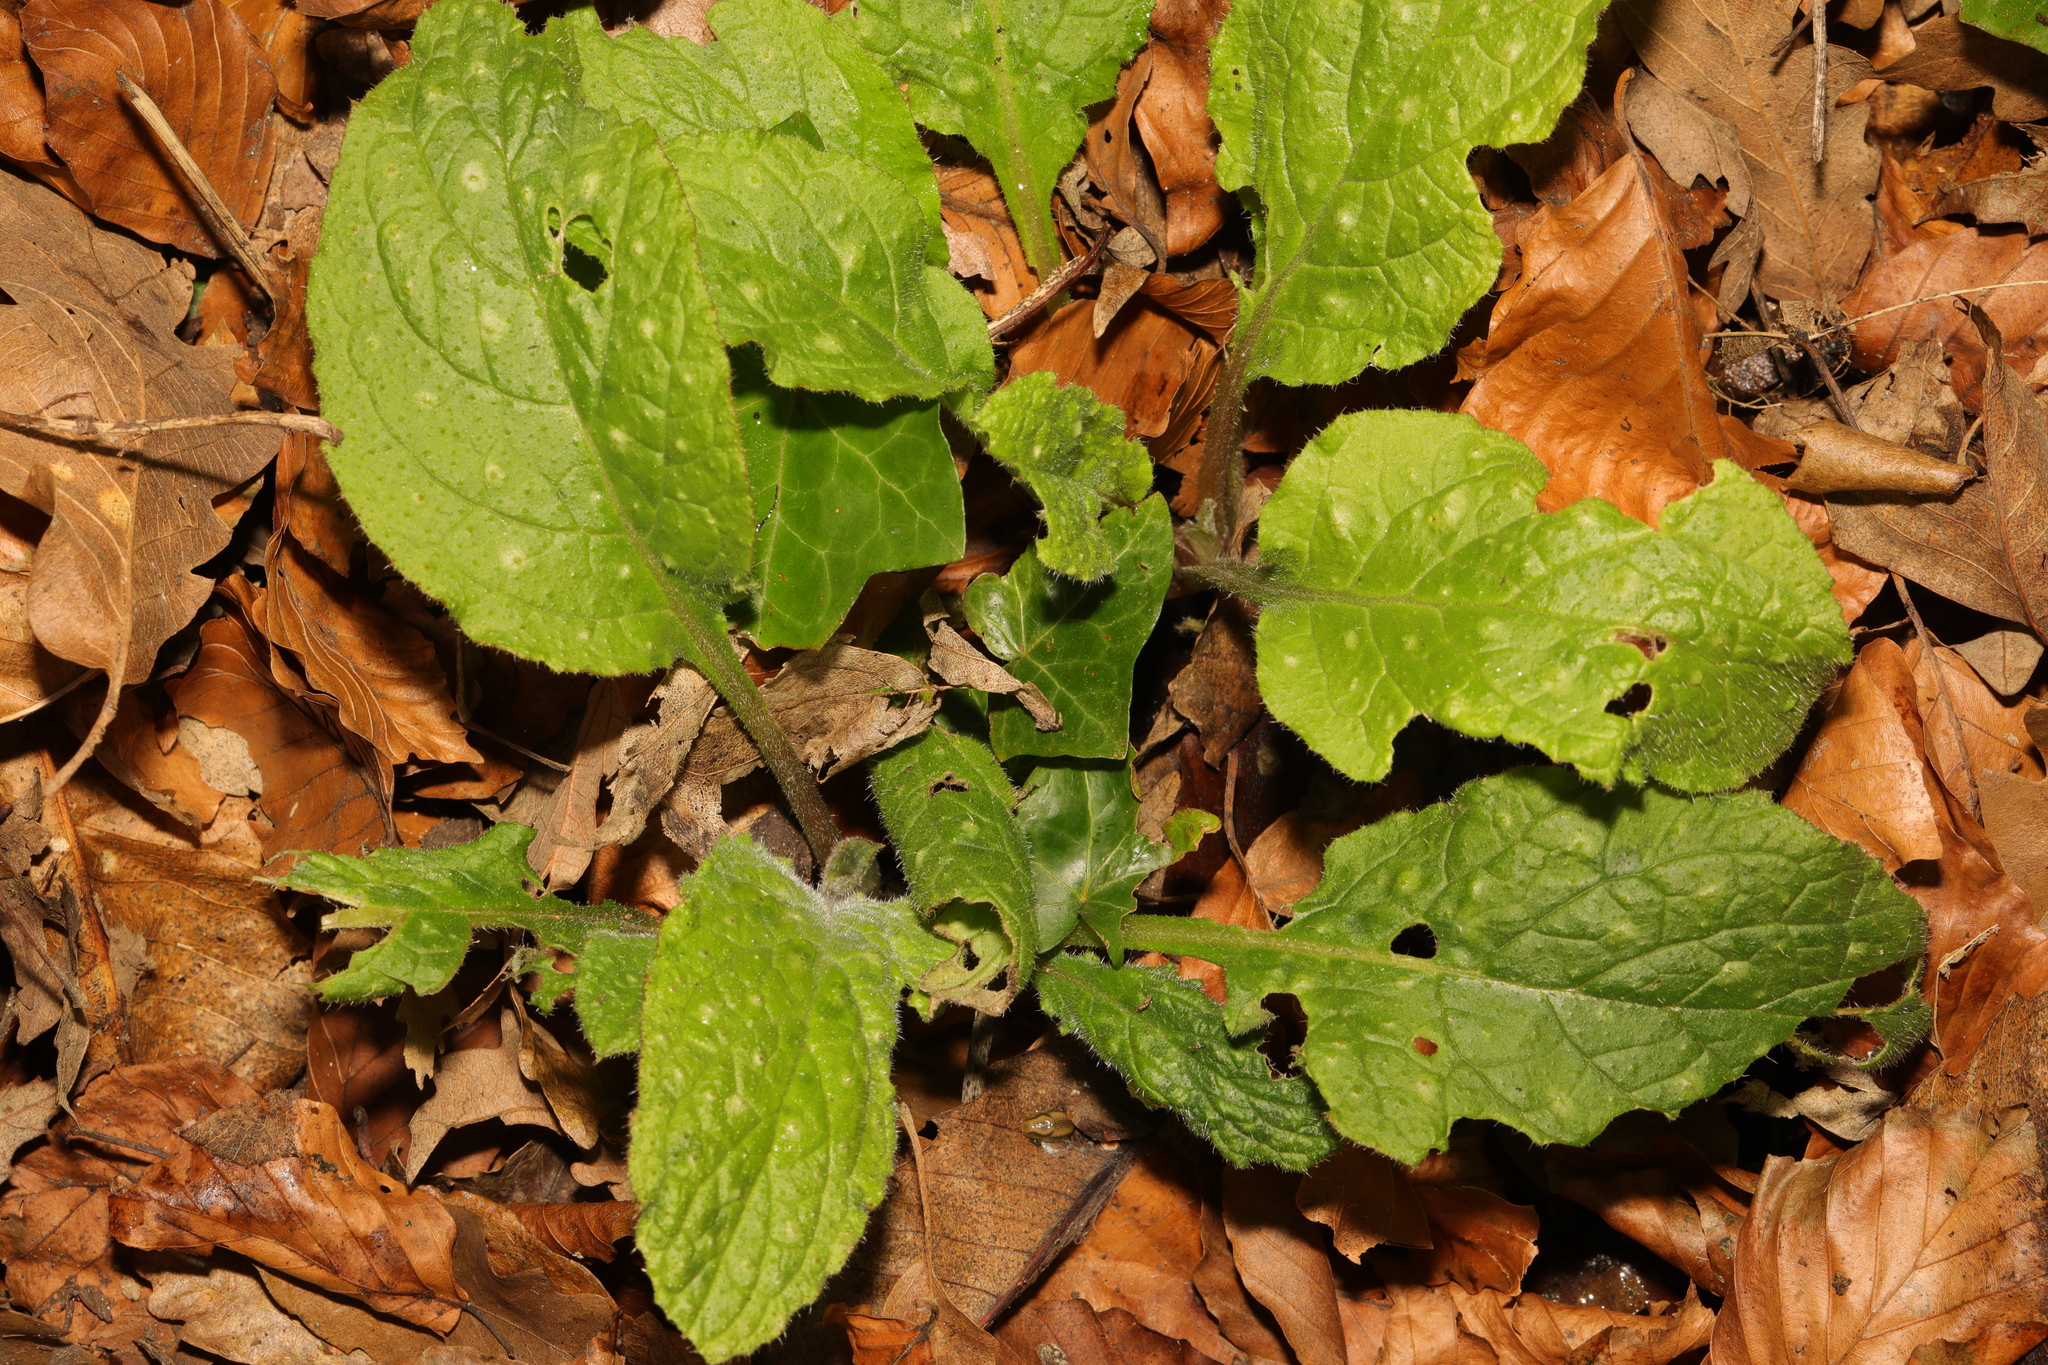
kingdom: Plantae
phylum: Tracheophyta
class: Magnoliopsida
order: Boraginales
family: Boraginaceae
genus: Pentaglottis
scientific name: Pentaglottis sempervirens
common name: Green alkanet
